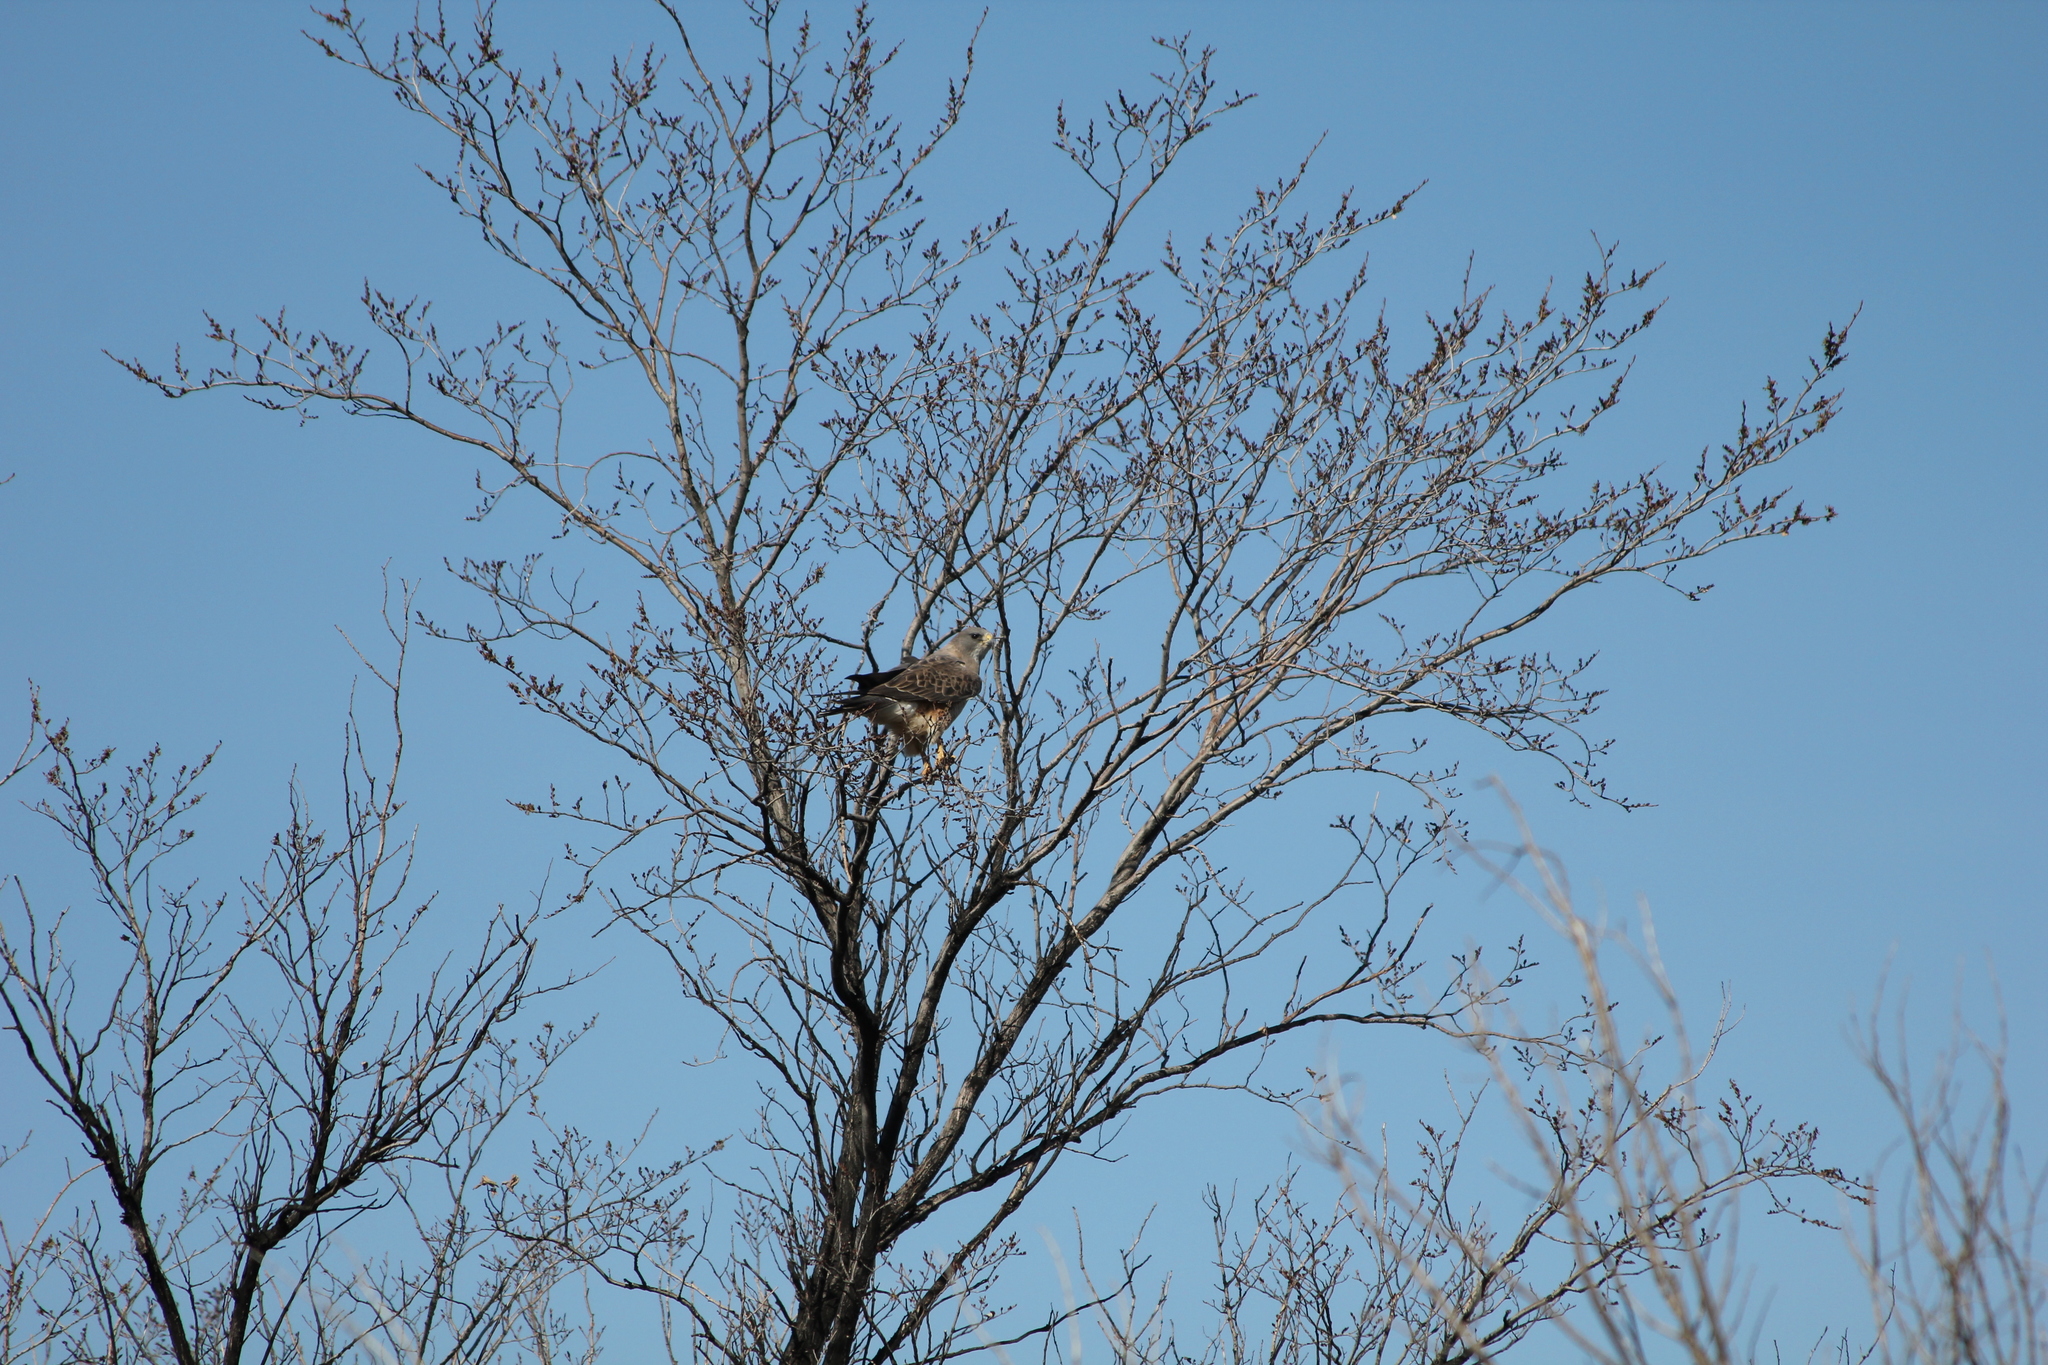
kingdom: Animalia
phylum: Chordata
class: Aves
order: Accipitriformes
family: Accipitridae
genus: Buteo
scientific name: Buteo swainsoni
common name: Swainson's hawk
